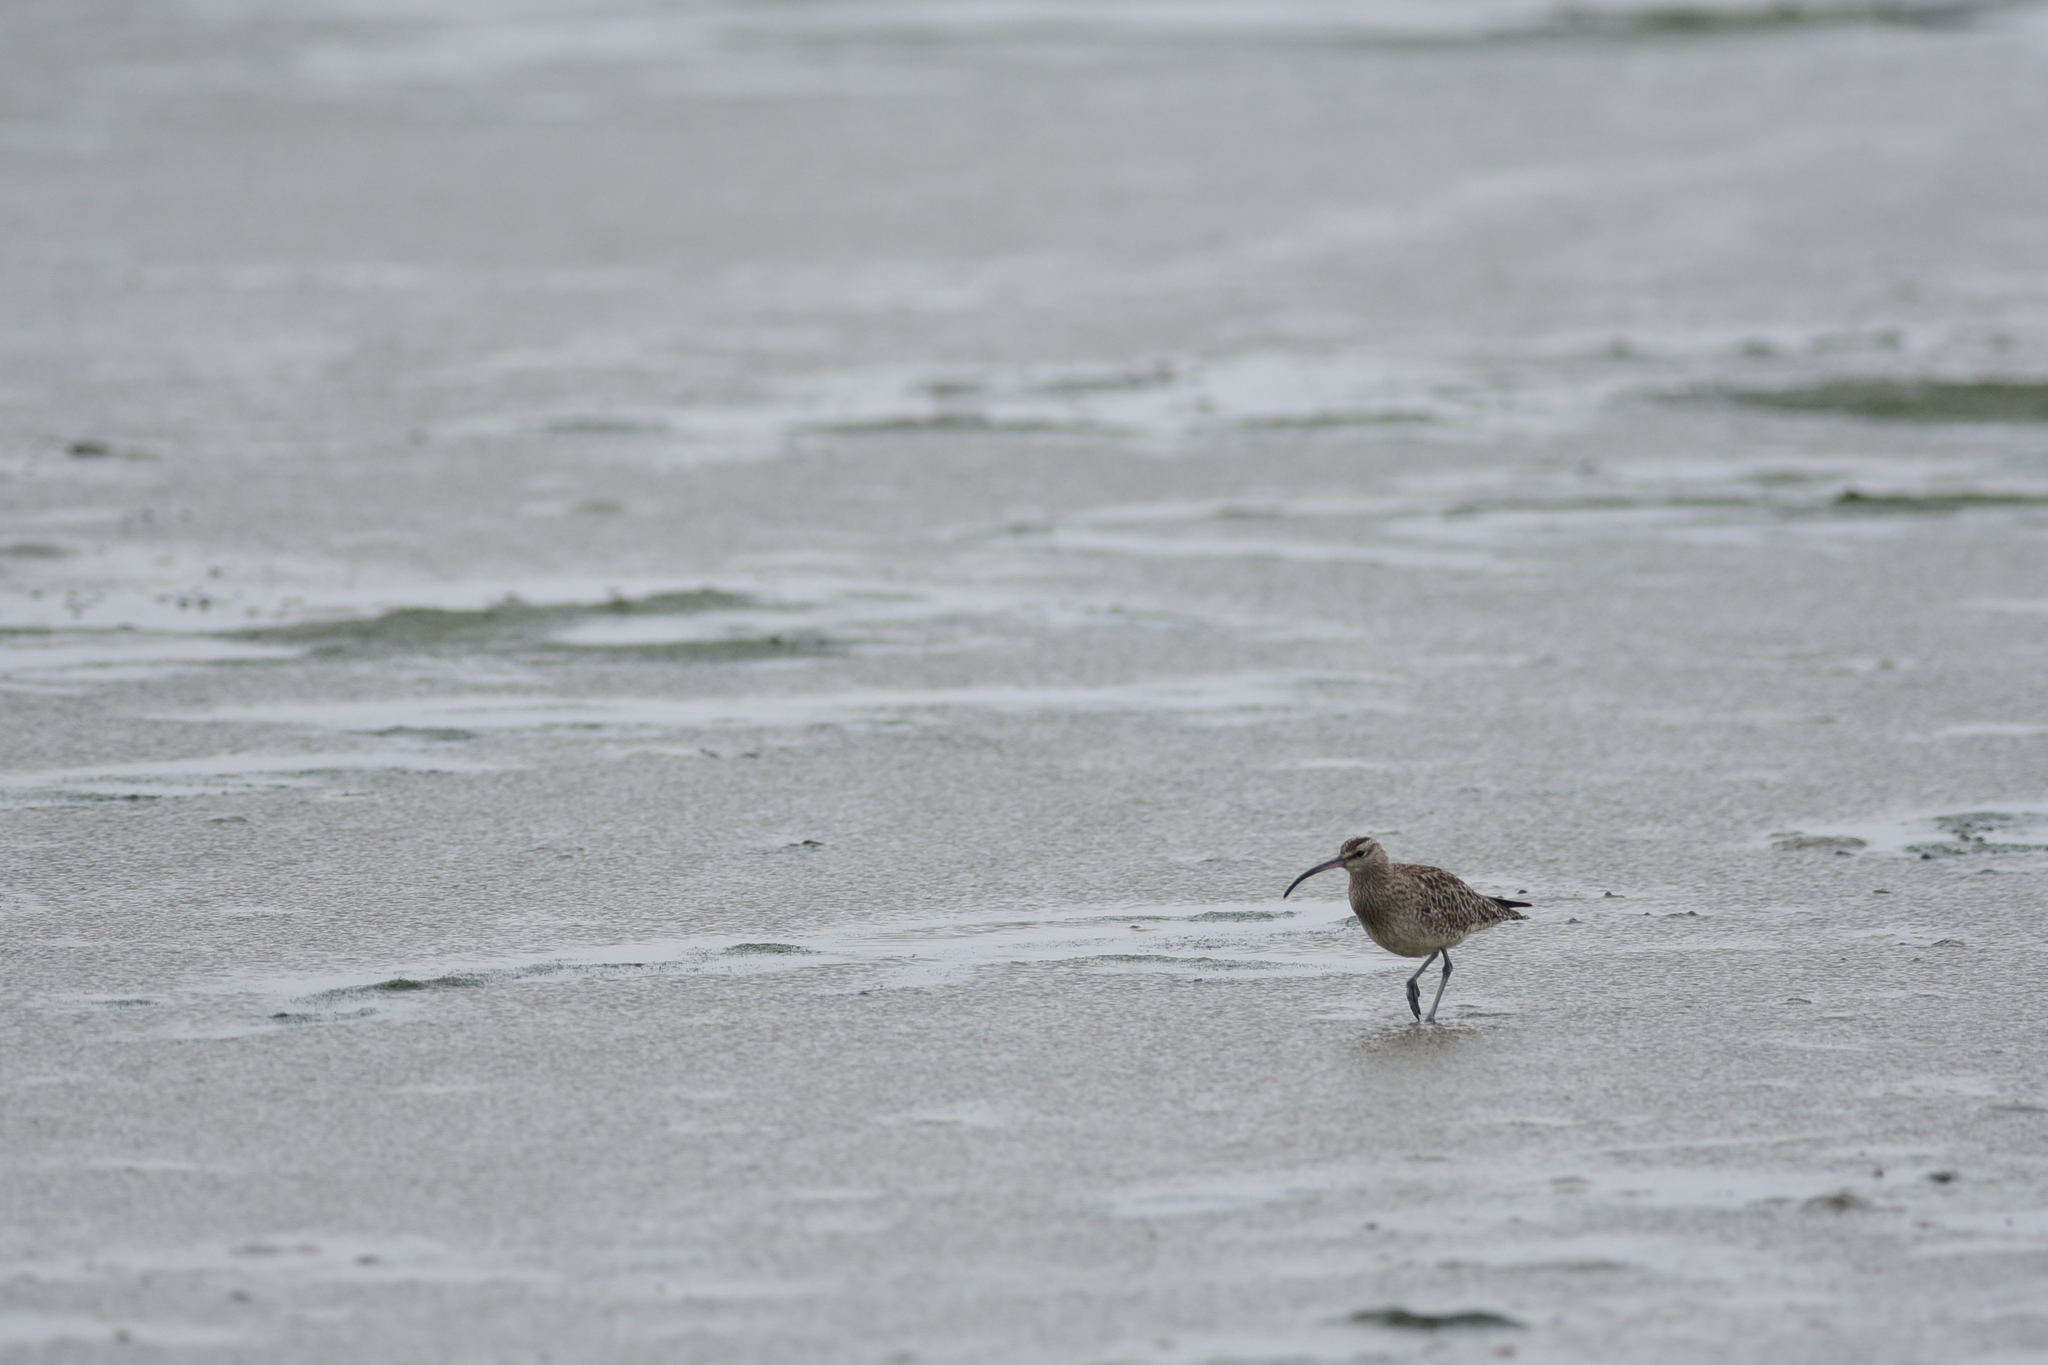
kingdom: Animalia
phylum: Chordata
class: Aves
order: Charadriiformes
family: Scolopacidae
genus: Numenius
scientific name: Numenius phaeopus
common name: Whimbrel
